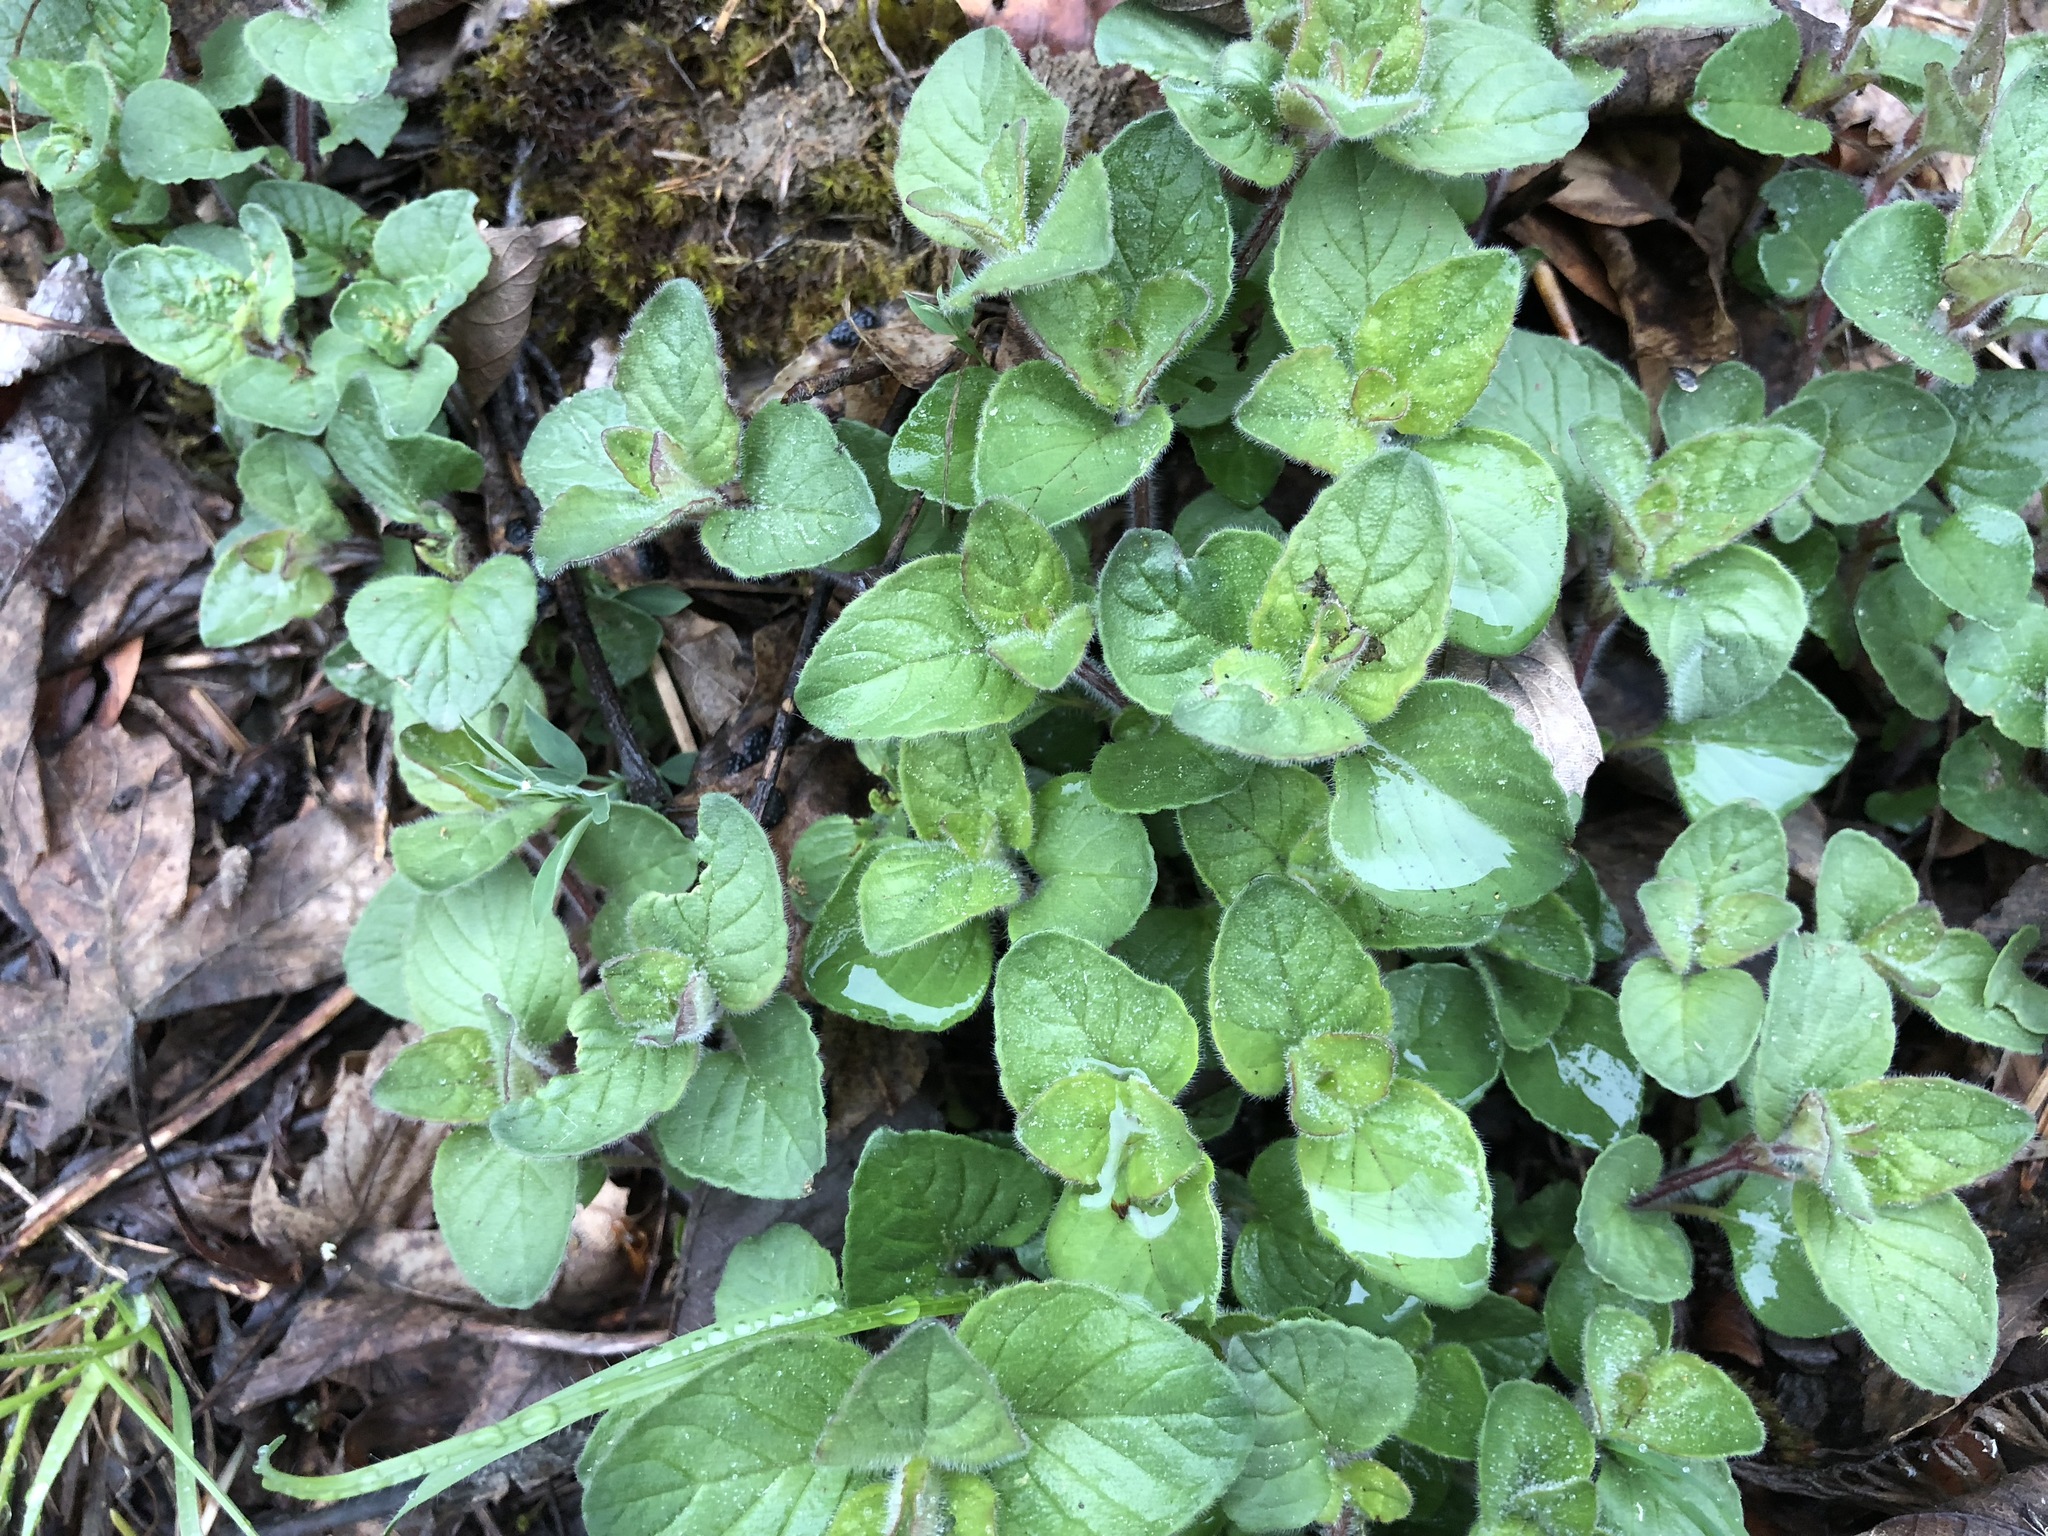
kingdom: Plantae
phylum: Tracheophyta
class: Magnoliopsida
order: Lamiales
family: Lamiaceae
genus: Origanum
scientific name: Origanum vulgare
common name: Wild marjoram
